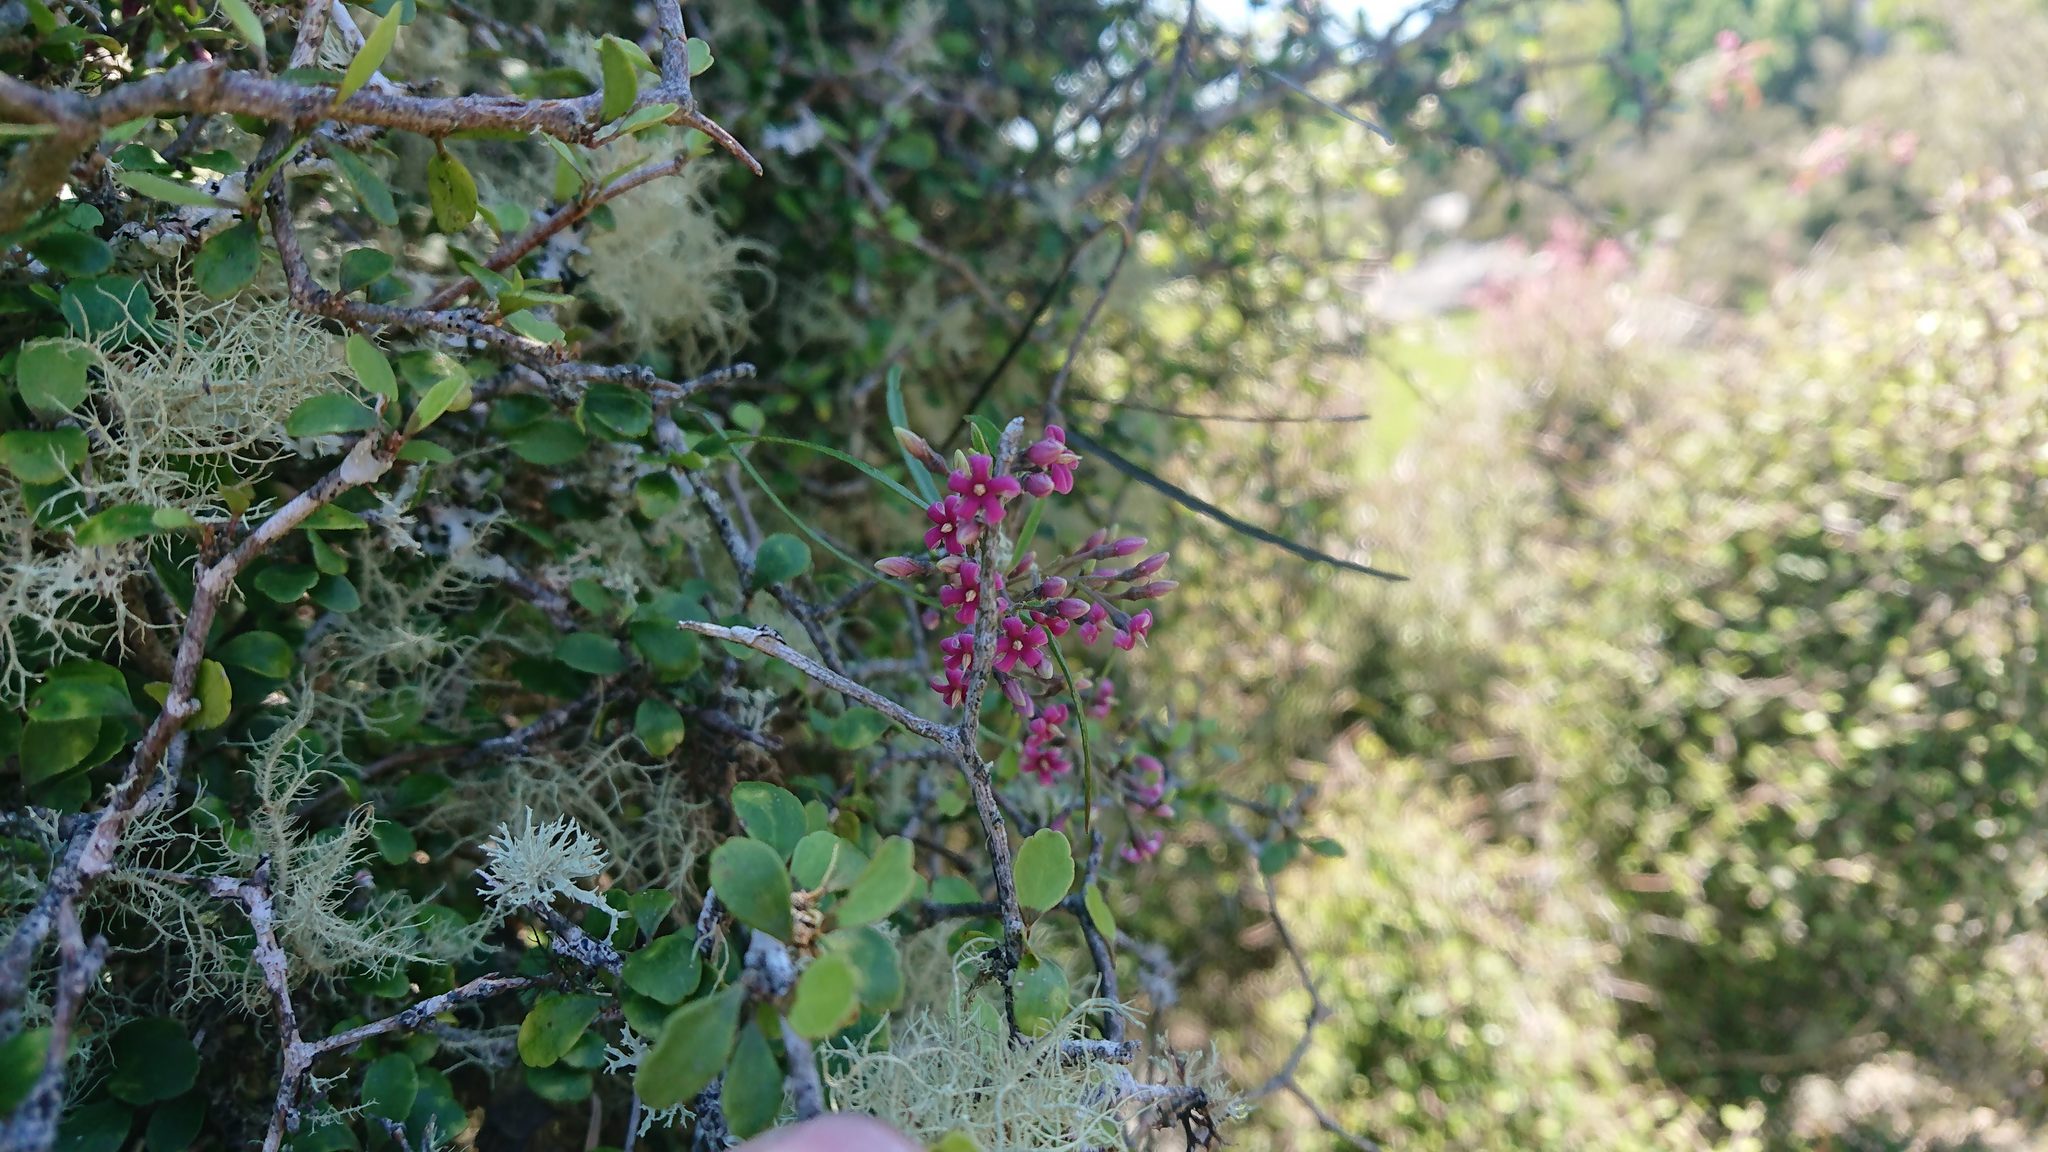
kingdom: Plantae
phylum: Tracheophyta
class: Magnoliopsida
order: Gentianales
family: Apocynaceae
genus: Parsonsia
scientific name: Parsonsia capsularis
